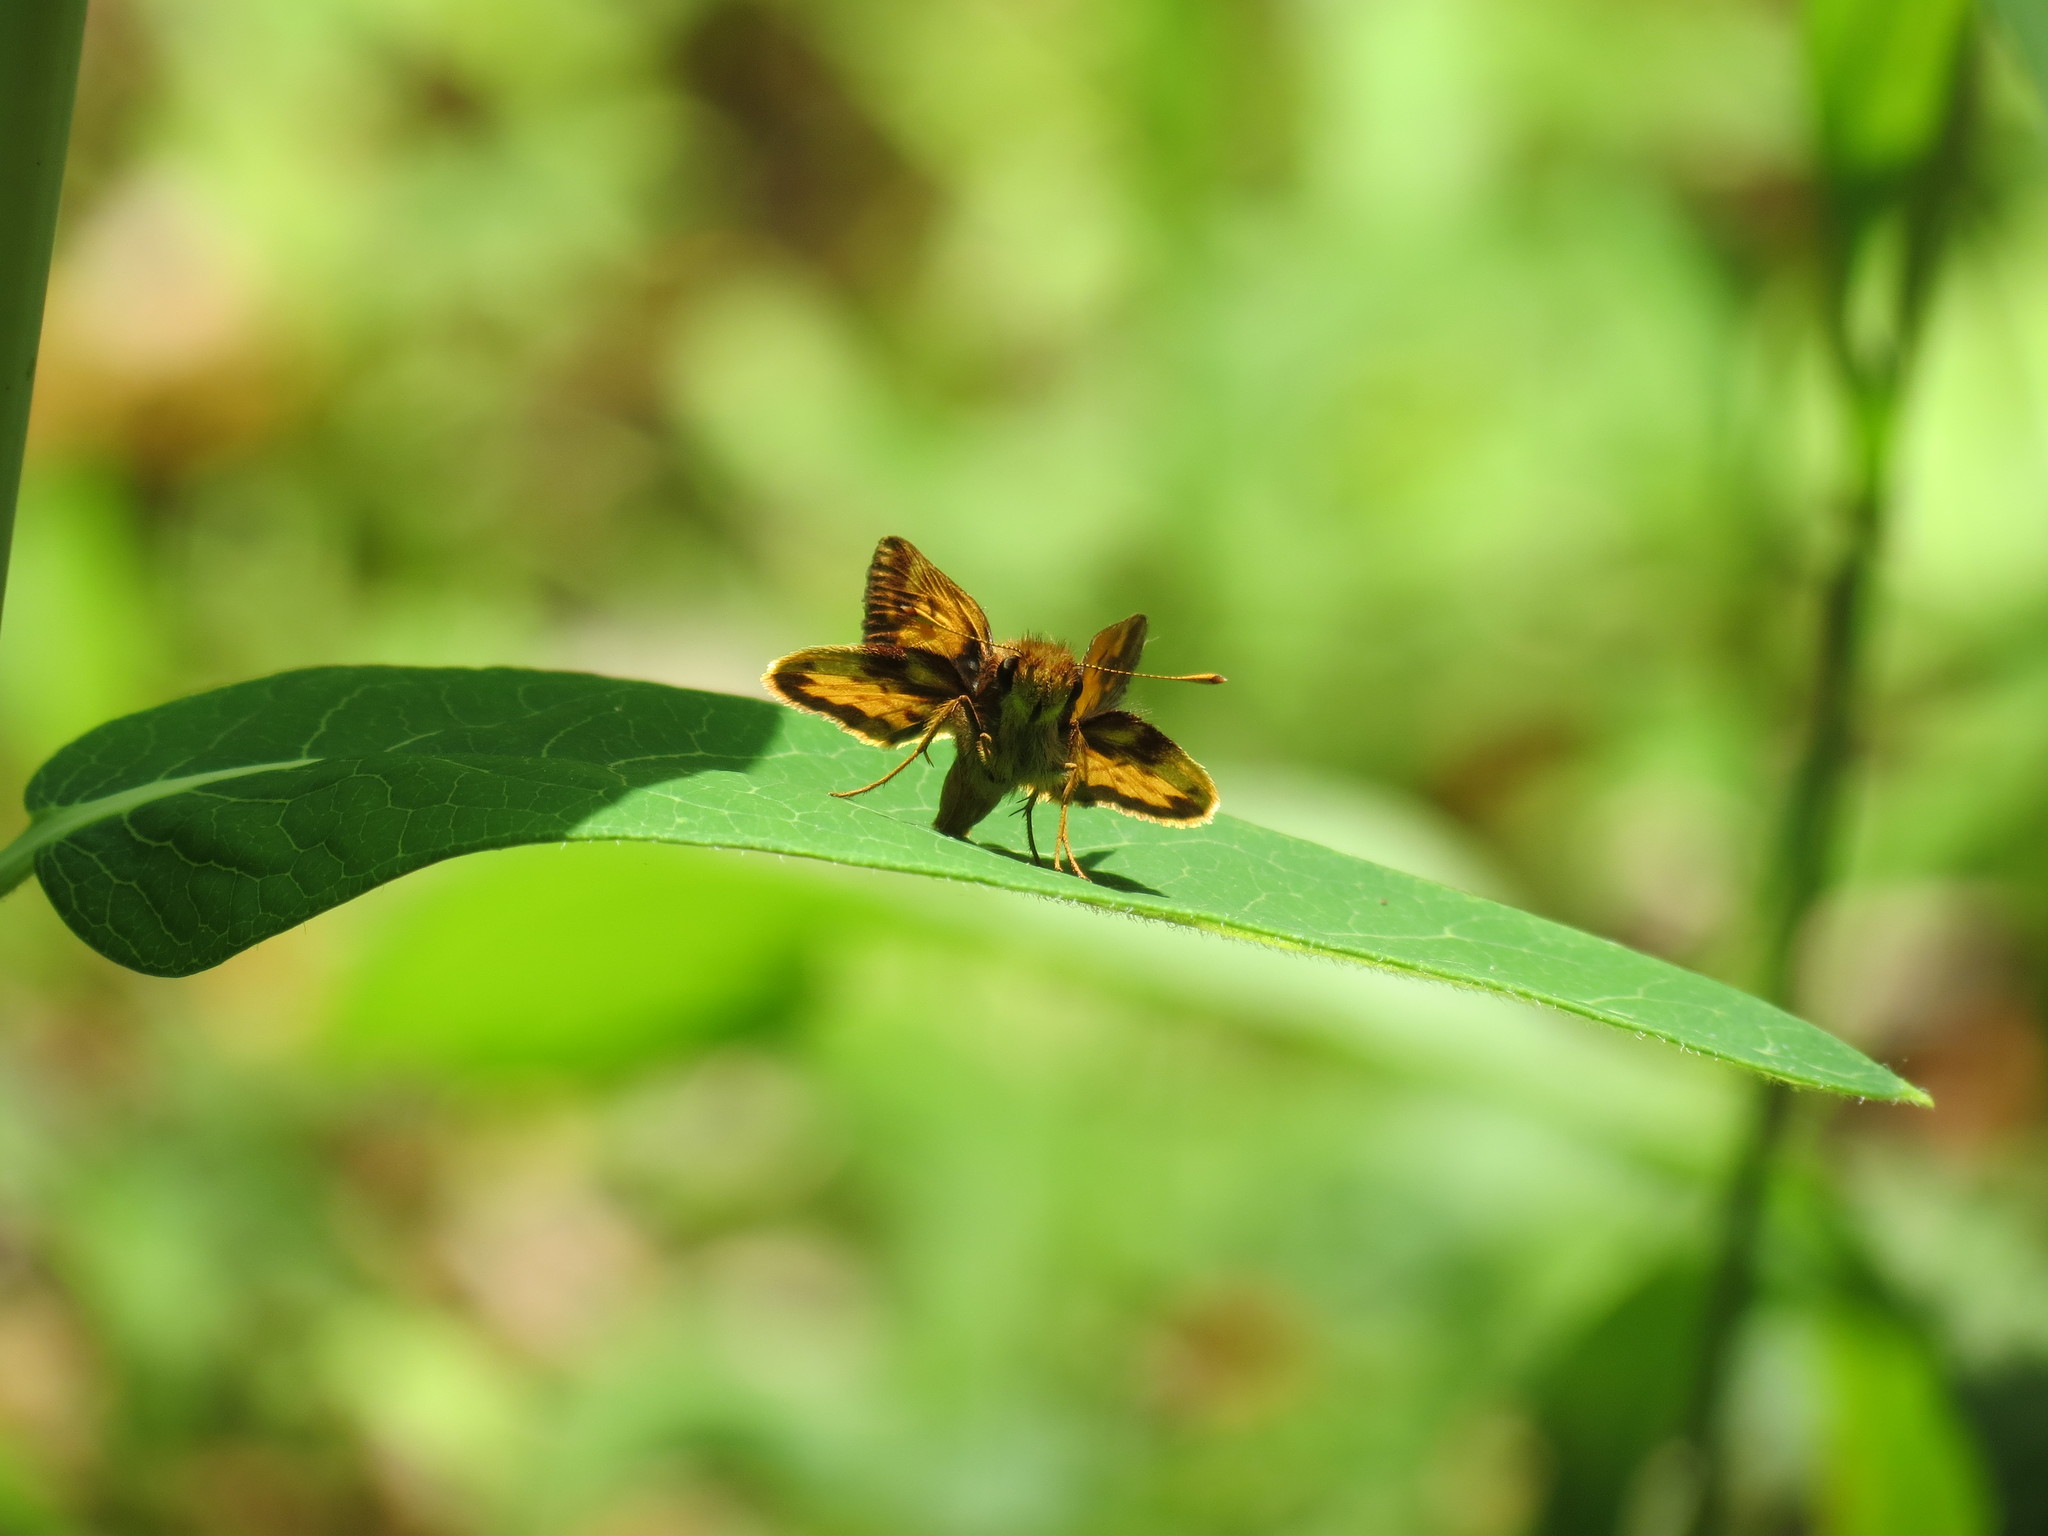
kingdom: Animalia
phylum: Arthropoda
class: Insecta
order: Lepidoptera
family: Hesperiidae
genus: Lon
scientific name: Lon zabulon
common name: Zabulon skipper
